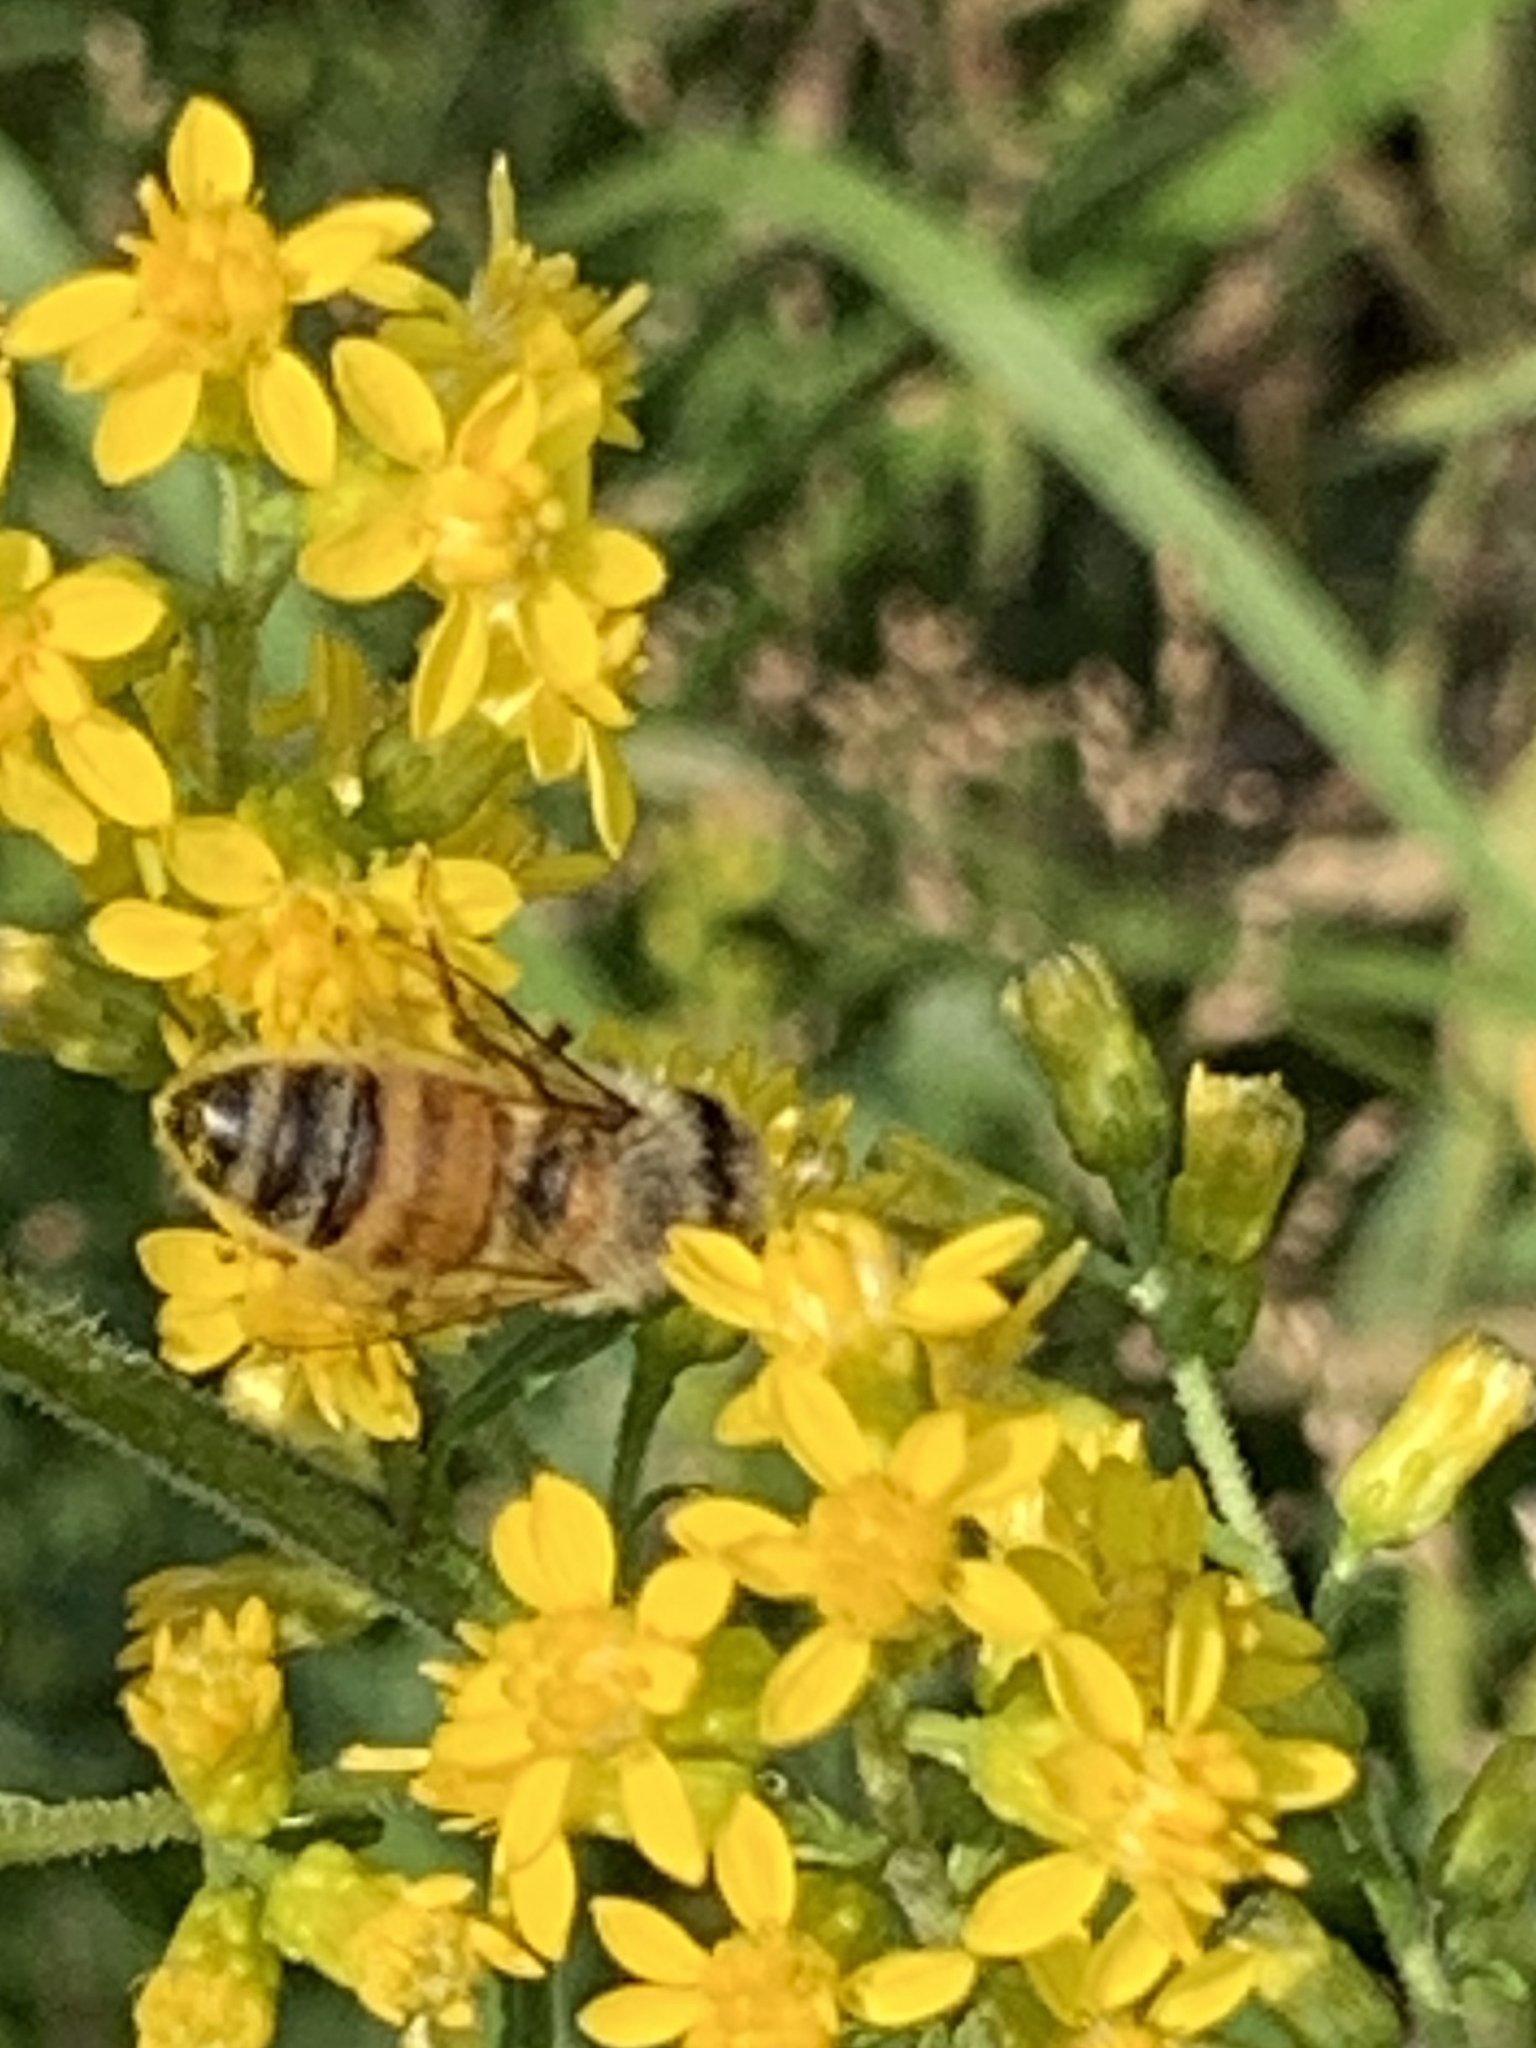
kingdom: Animalia
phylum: Arthropoda
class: Insecta
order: Hymenoptera
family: Apidae
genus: Apis
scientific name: Apis mellifera
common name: Honey bee
